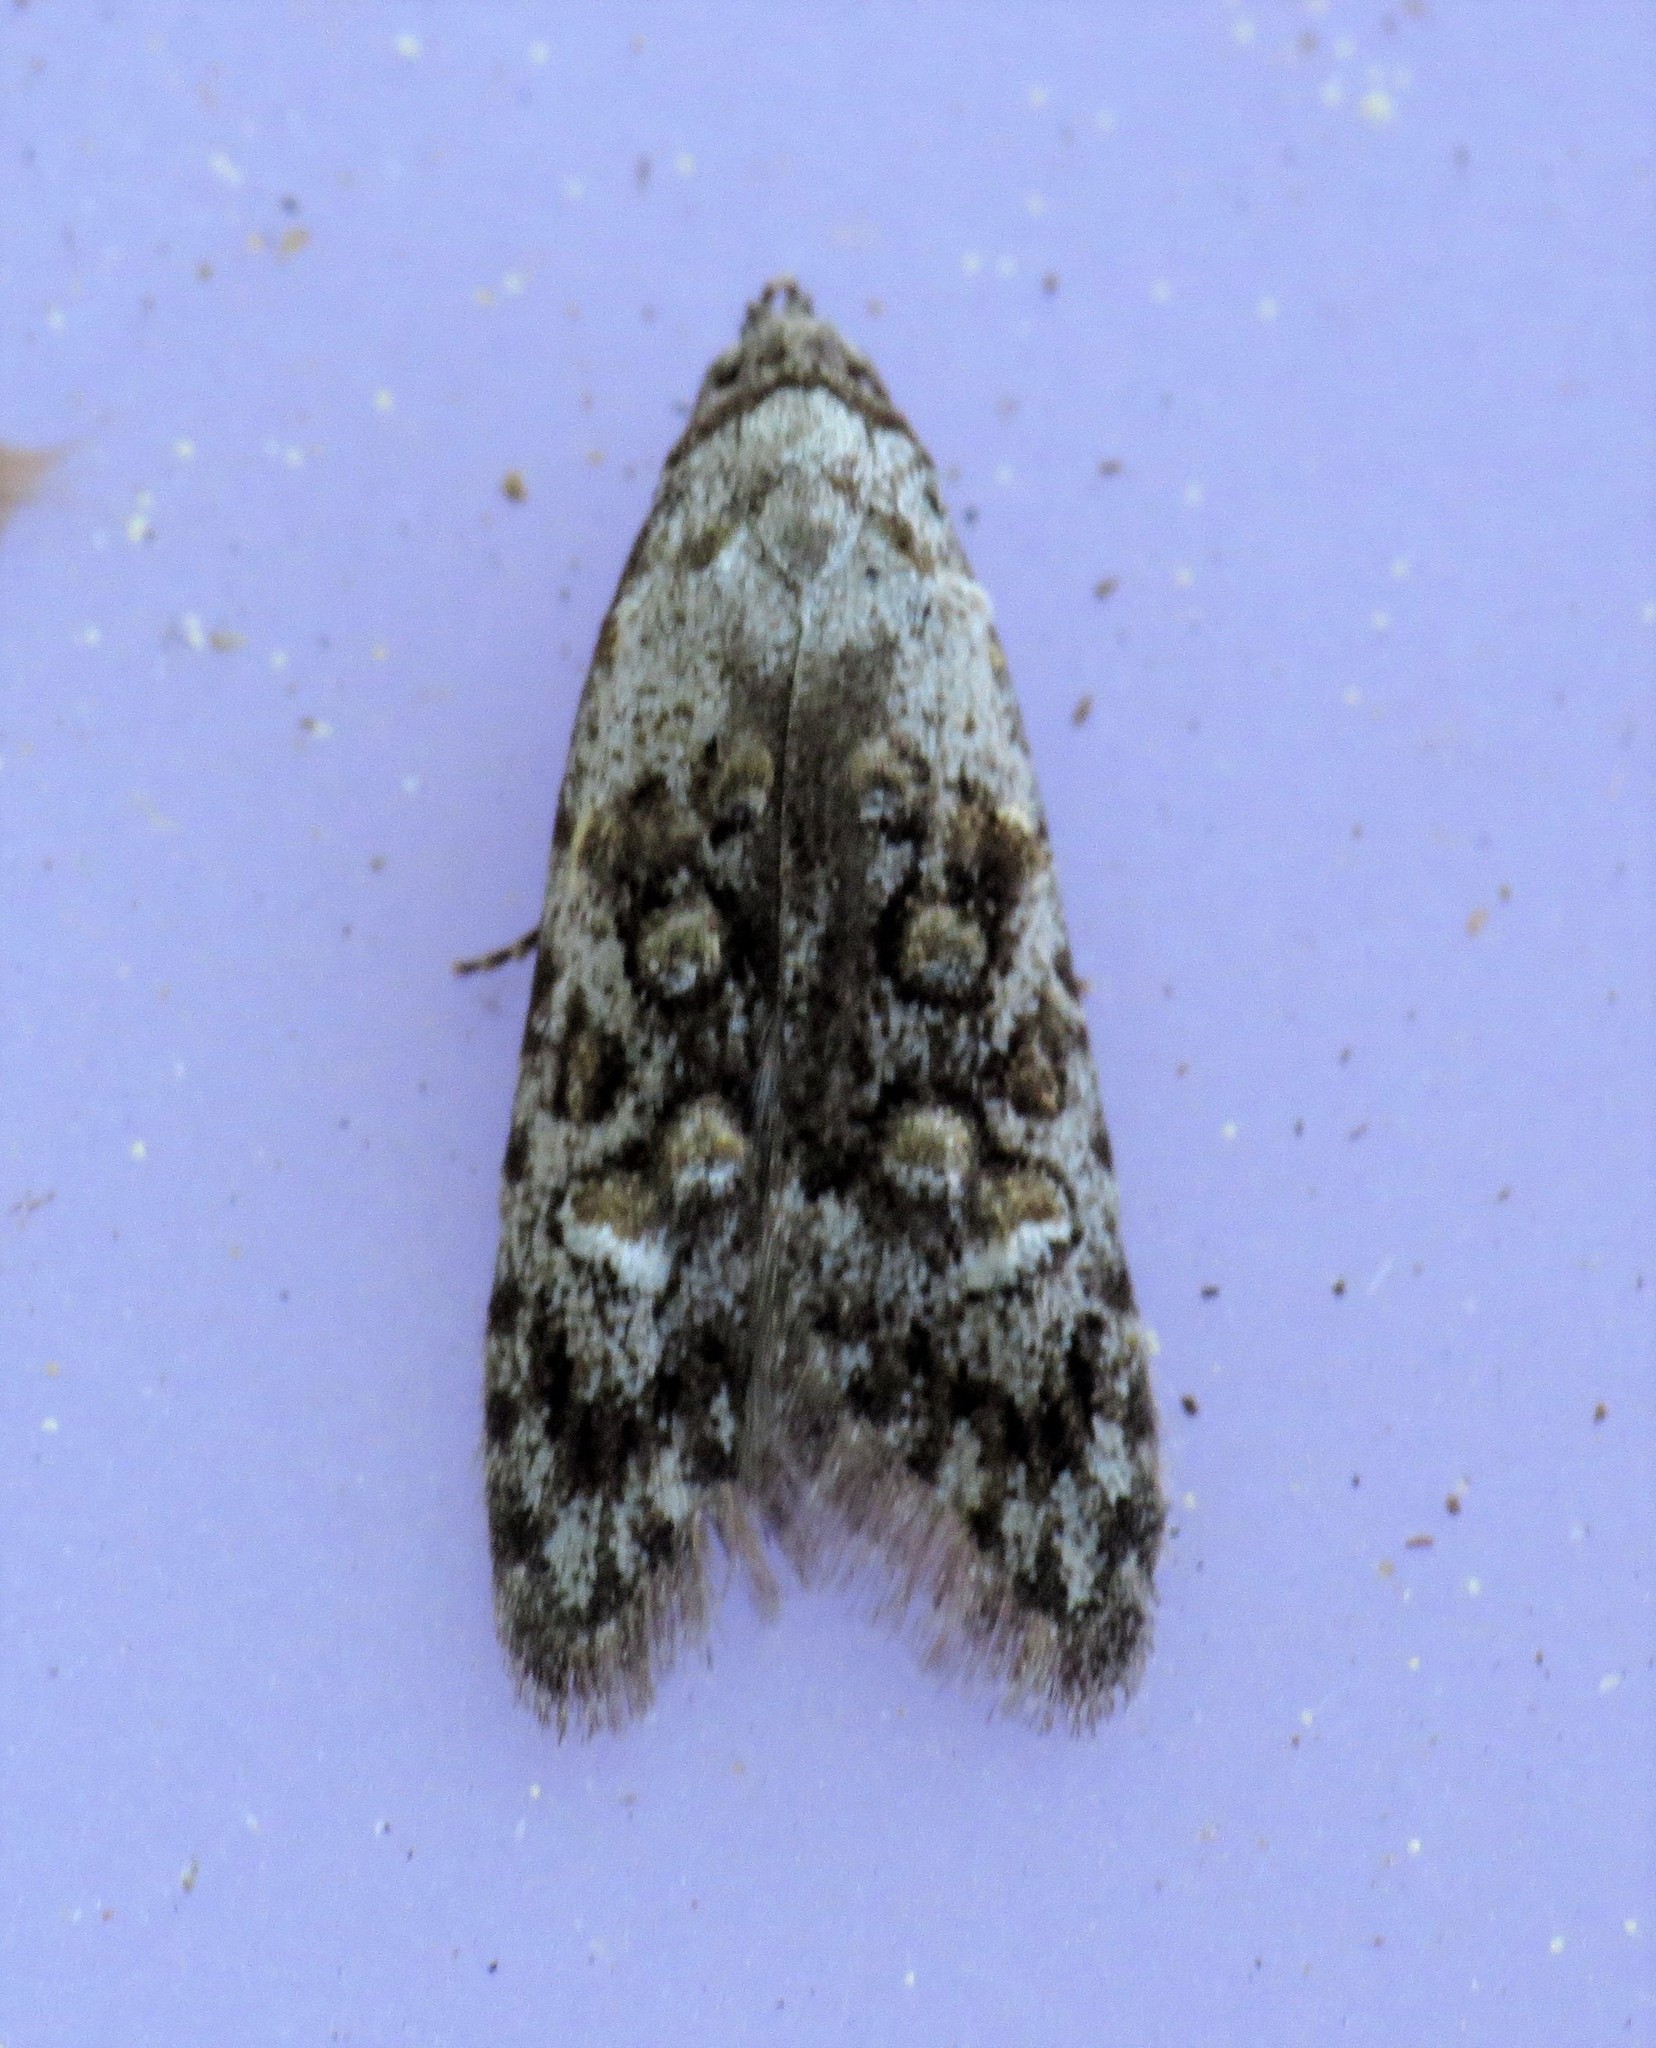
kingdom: Animalia
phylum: Arthropoda
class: Insecta
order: Lepidoptera
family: Carposinidae
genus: Bondia
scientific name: Bondia crescentella
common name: Crescent-marked bondia
